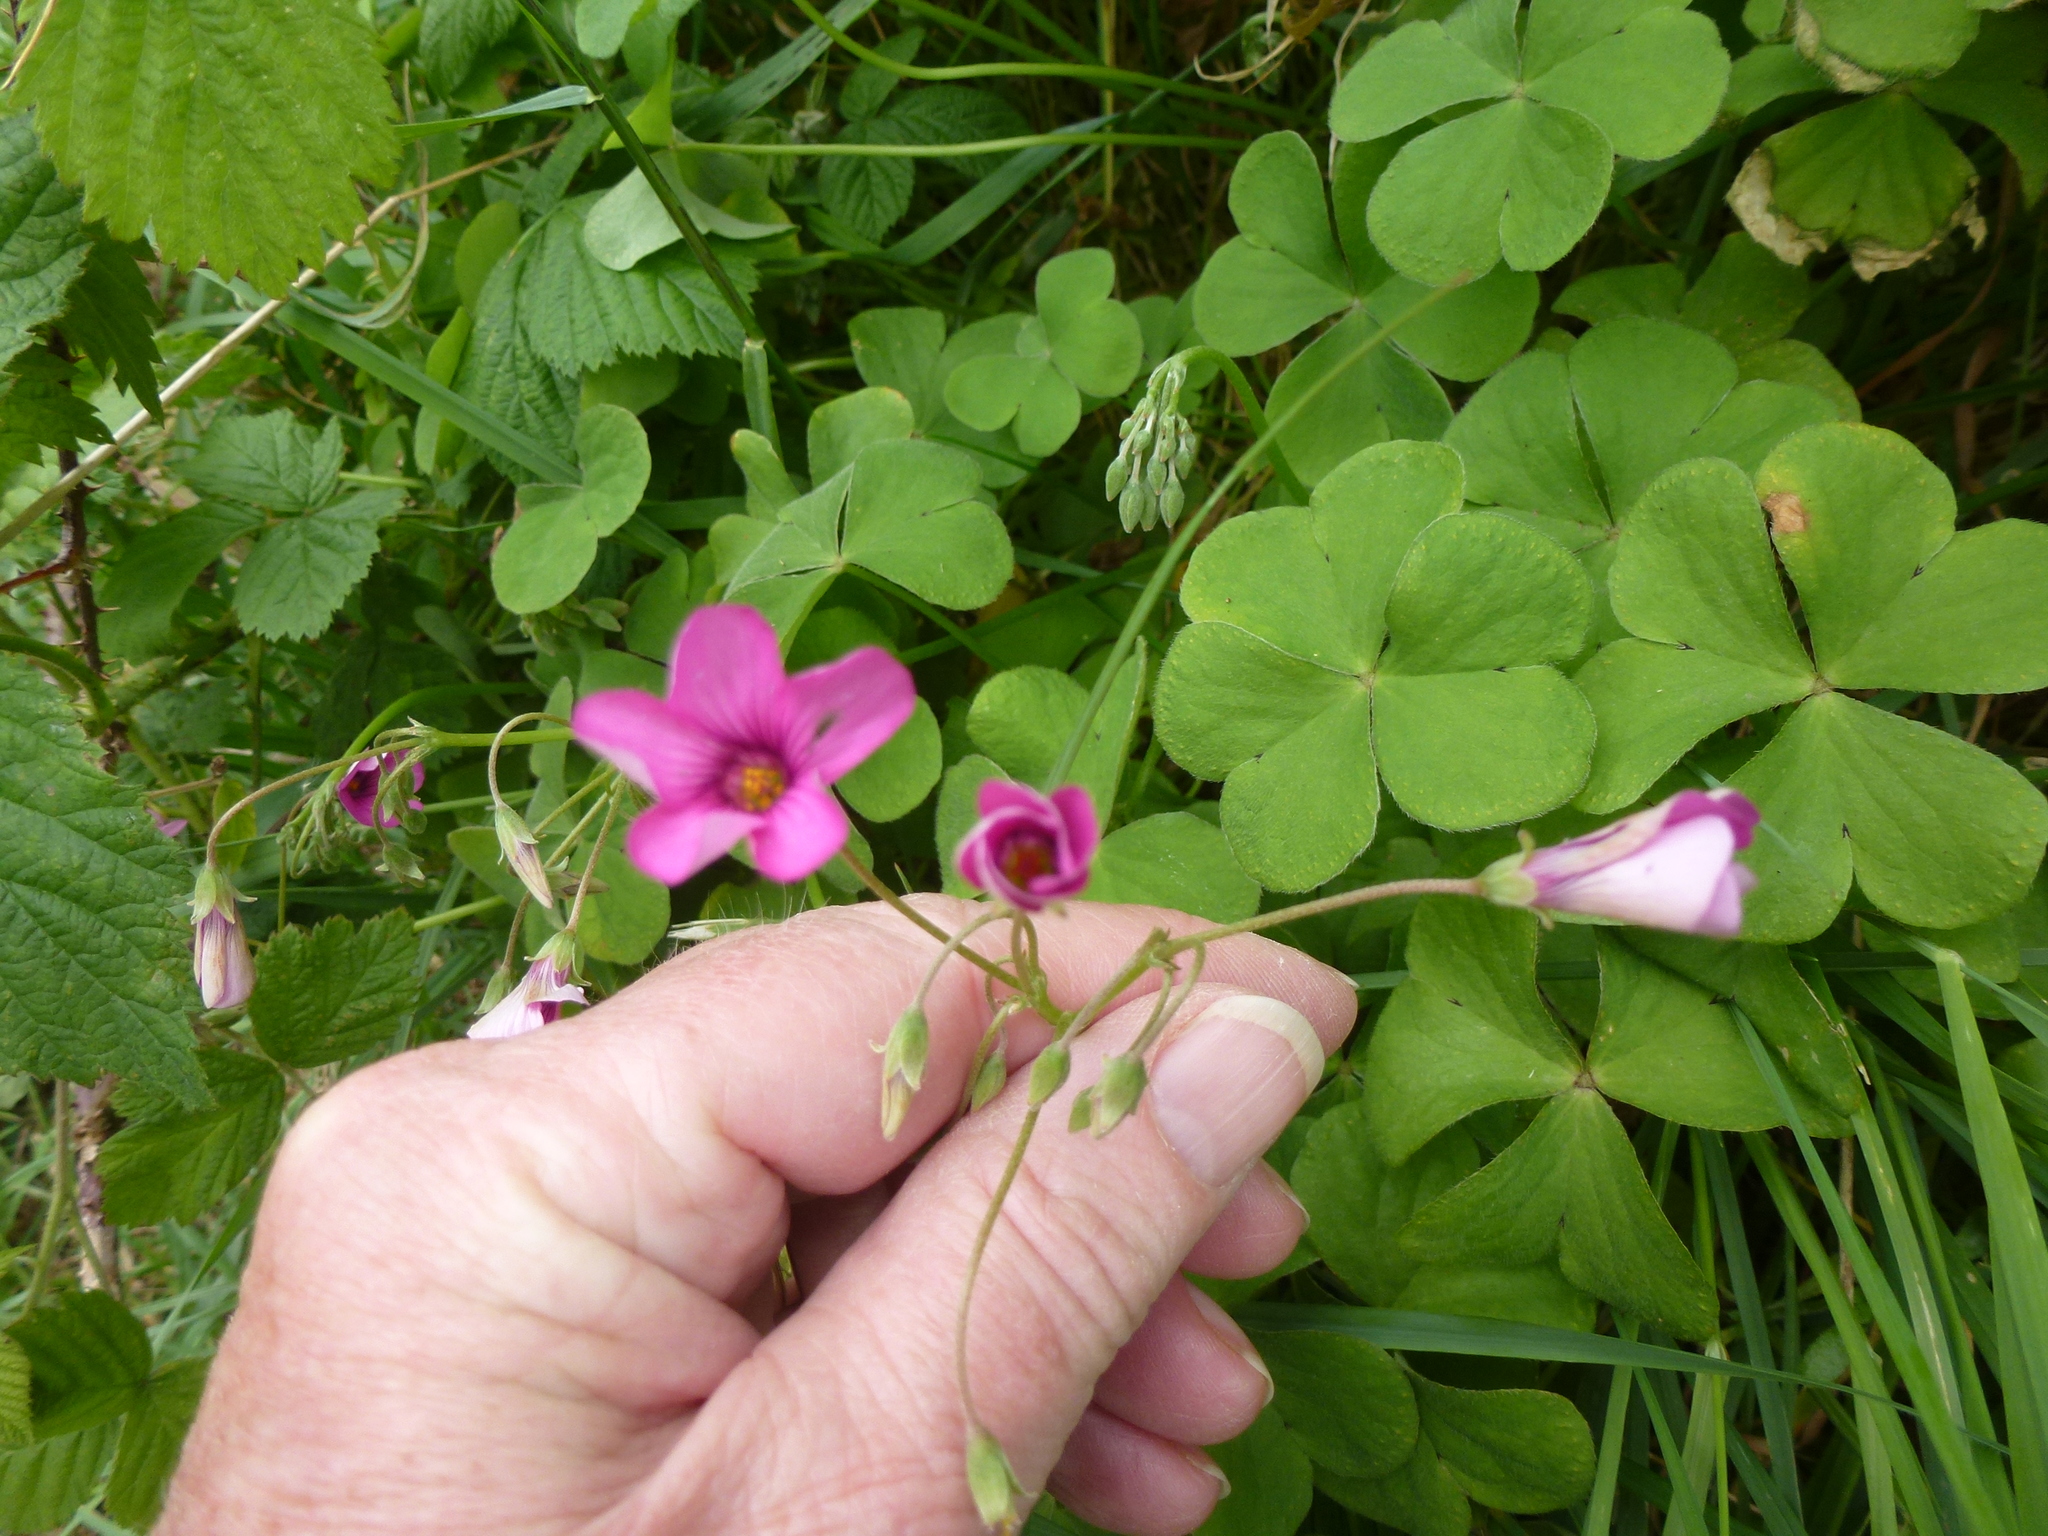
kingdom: Plantae
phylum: Tracheophyta
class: Magnoliopsida
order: Oxalidales
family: Oxalidaceae
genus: Oxalis
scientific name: Oxalis articulata
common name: Pink-sorrel
